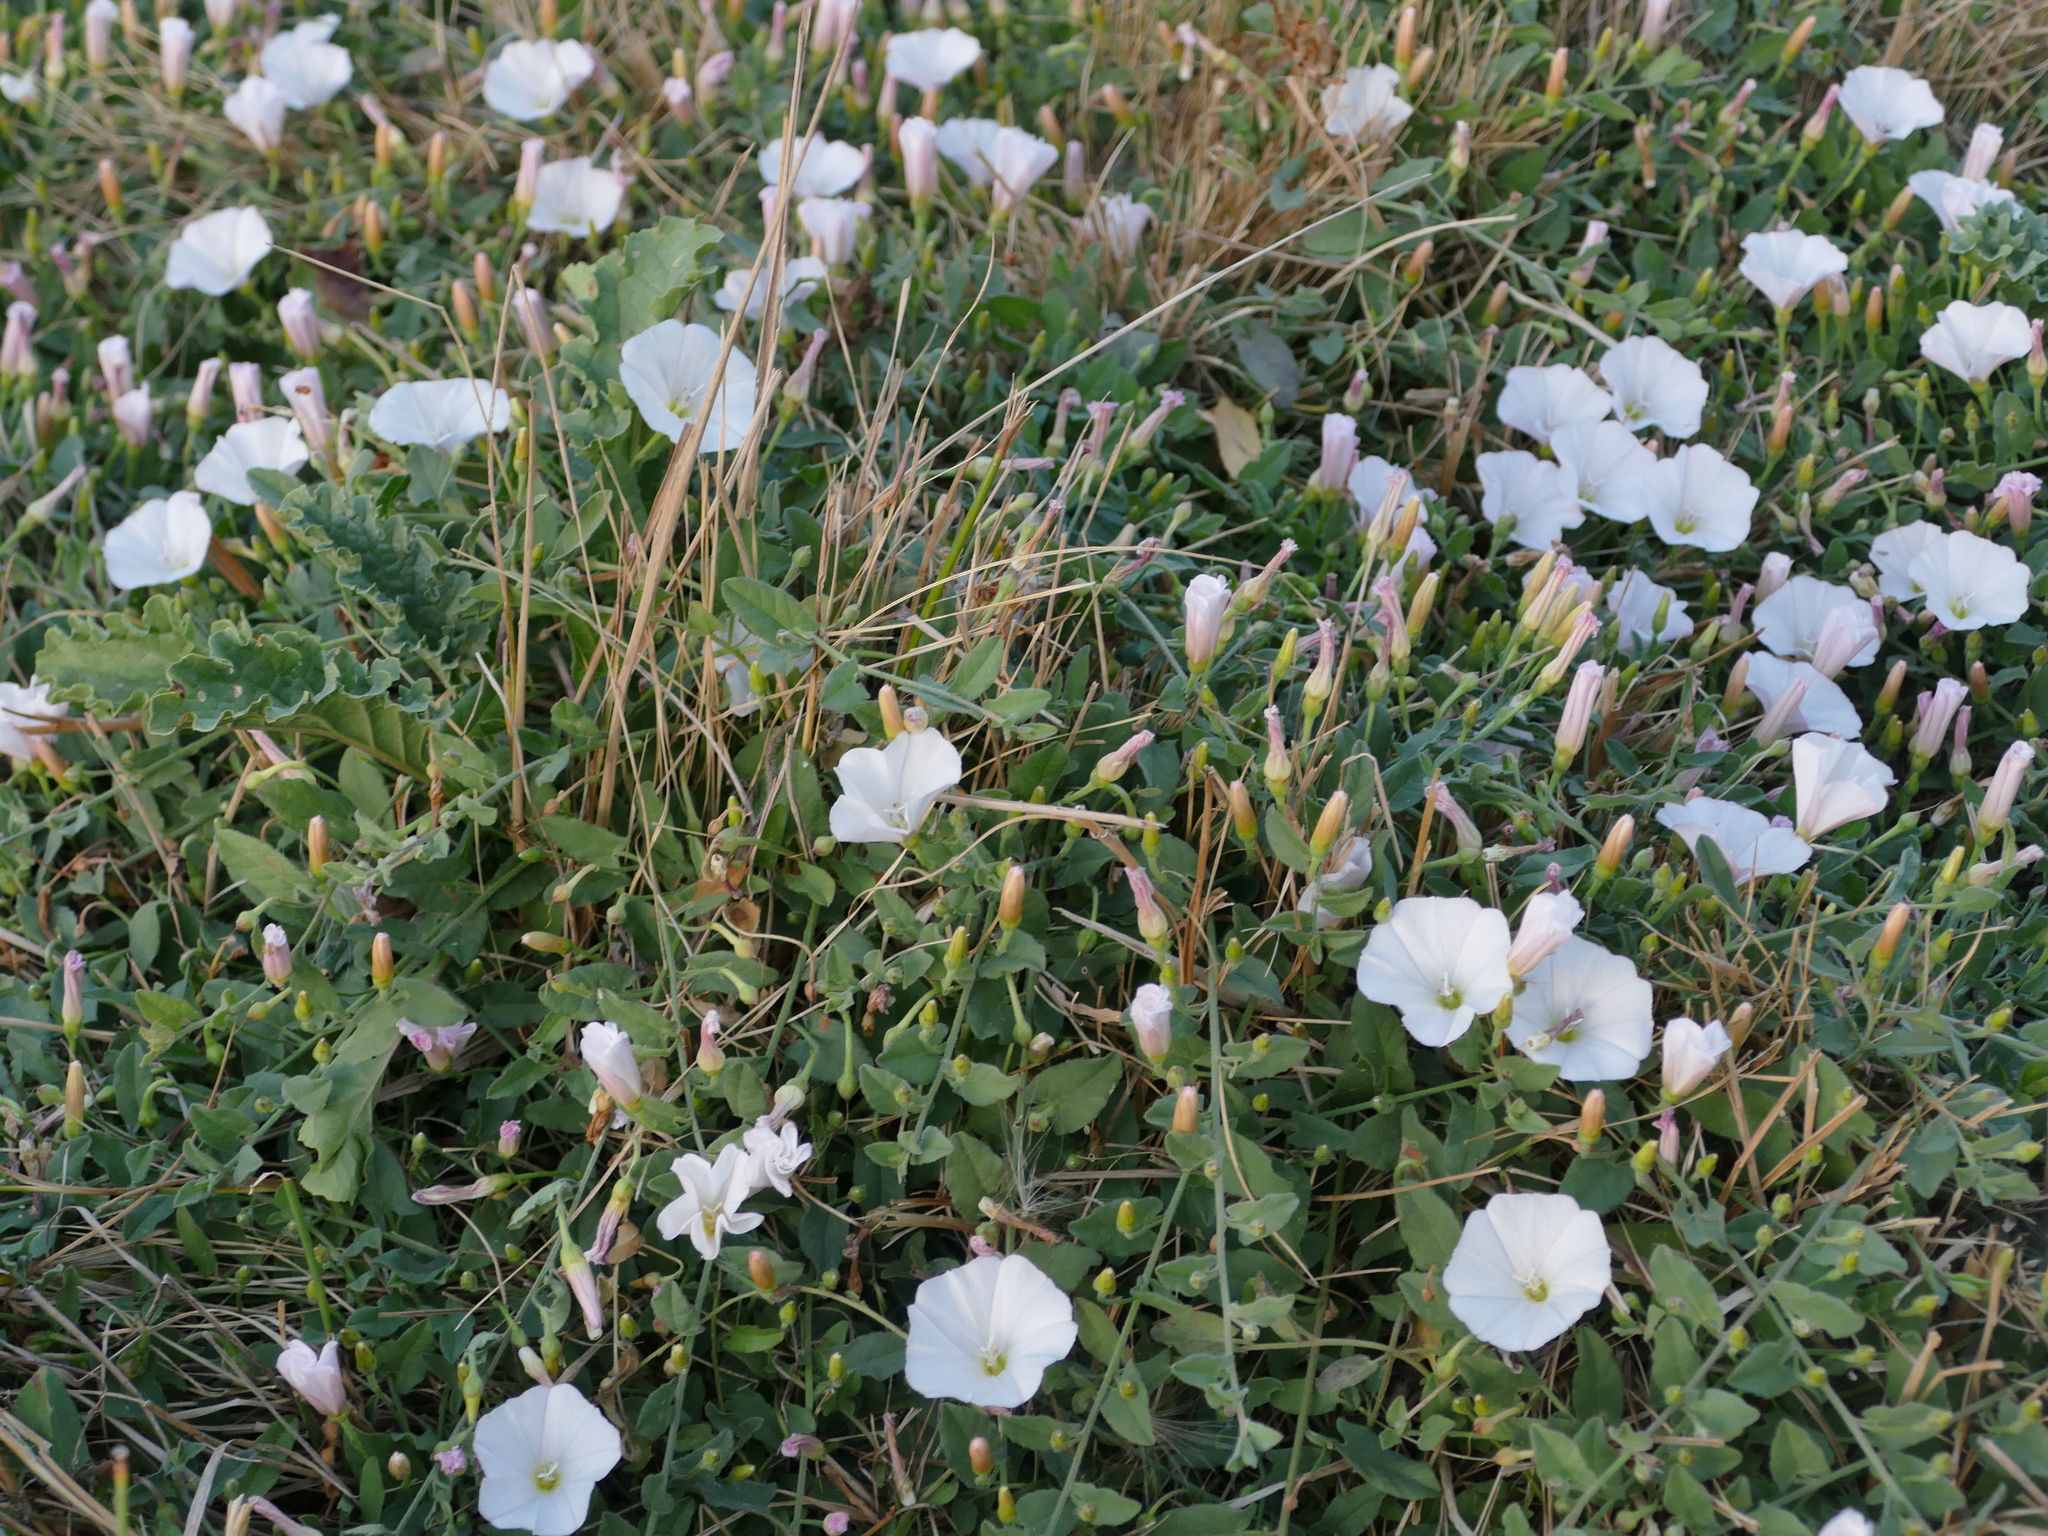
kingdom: Plantae
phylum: Tracheophyta
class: Magnoliopsida
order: Solanales
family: Convolvulaceae
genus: Convolvulus
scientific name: Convolvulus arvensis
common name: Field bindweed
